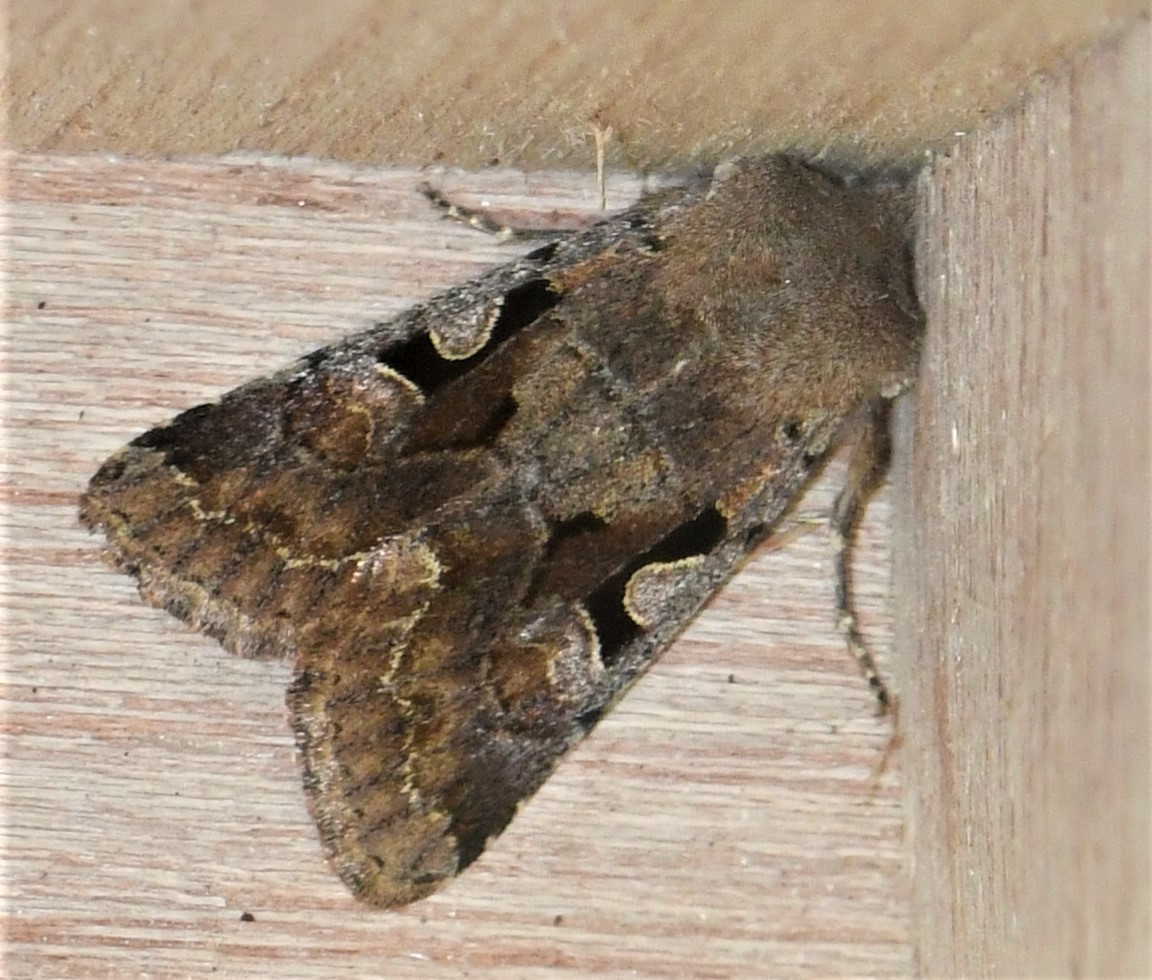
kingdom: Animalia
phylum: Arthropoda
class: Insecta
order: Lepidoptera
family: Noctuidae
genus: Orthosia
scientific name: Orthosia gothica
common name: Hebrew character
